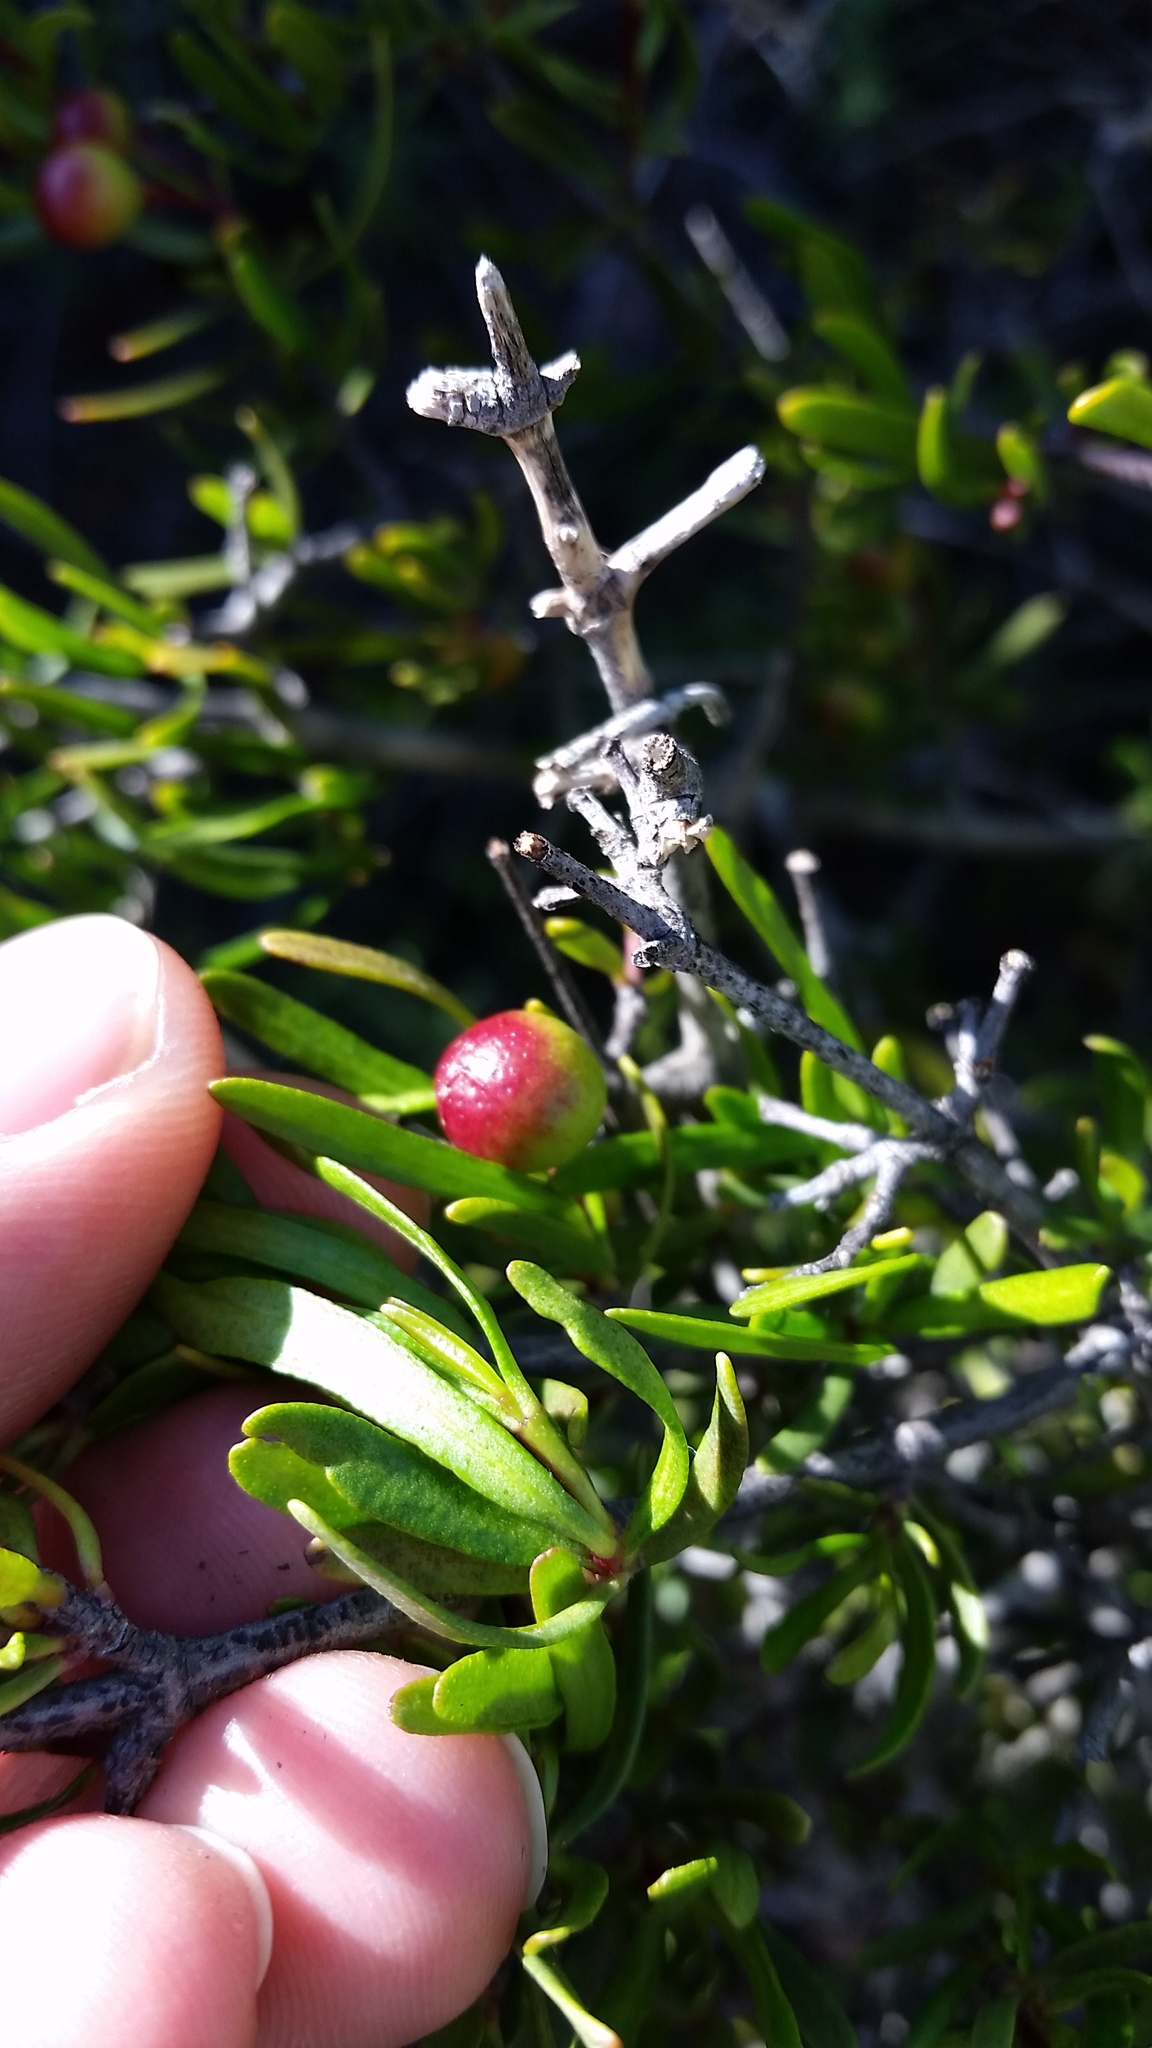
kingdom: Plantae
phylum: Tracheophyta
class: Magnoliopsida
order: Sapindales
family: Rutaceae
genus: Cneoridium
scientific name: Cneoridium dumosum
